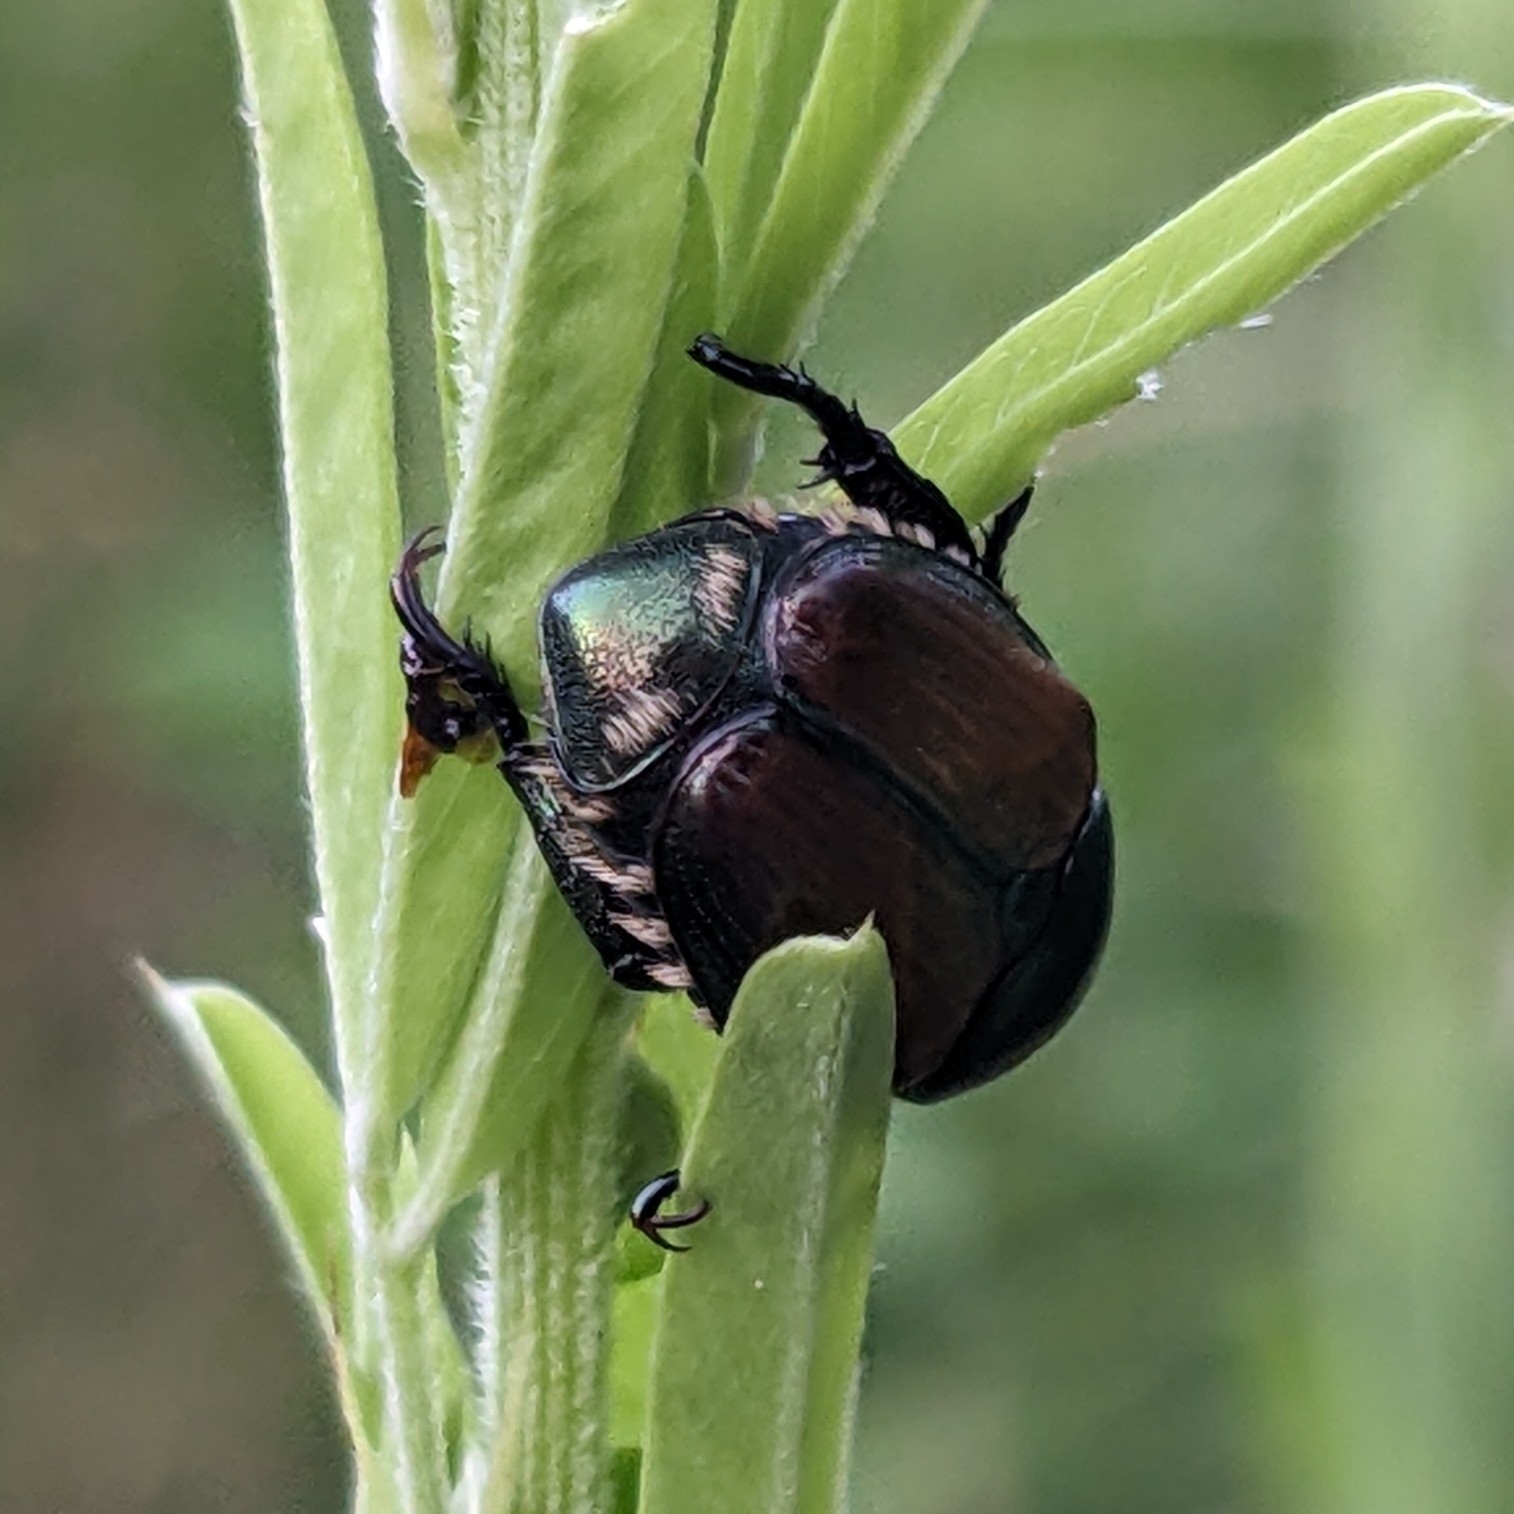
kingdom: Animalia
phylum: Arthropoda
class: Insecta
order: Coleoptera
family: Scarabaeidae
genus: Popillia
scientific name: Popillia japonica
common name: Japanese beetle
